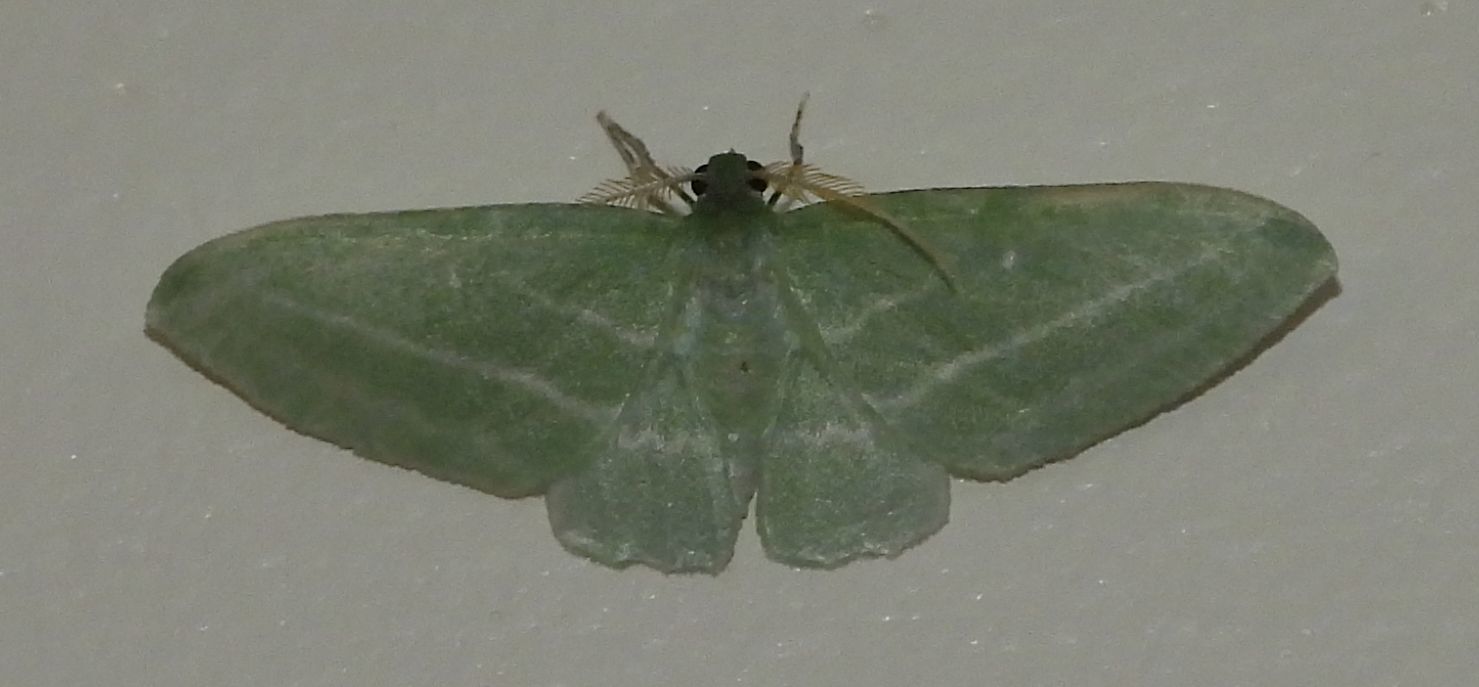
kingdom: Animalia
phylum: Arthropoda
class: Insecta
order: Lepidoptera
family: Geometridae
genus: Dyspteris
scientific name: Dyspteris abortivaria
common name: Bad-wing
